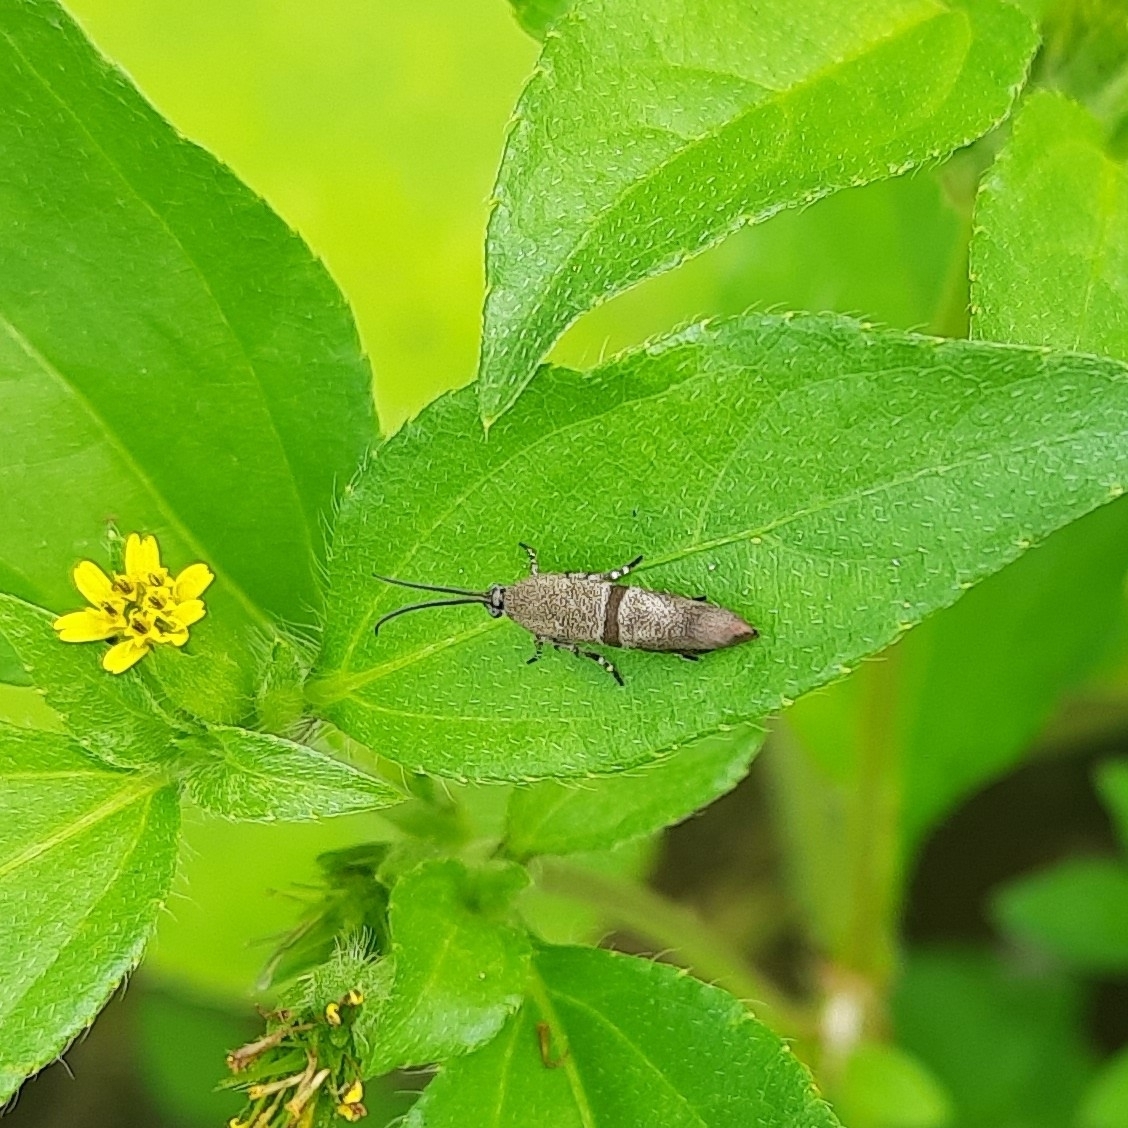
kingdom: Animalia
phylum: Arthropoda
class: Insecta
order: Lepidoptera
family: Brachodidae
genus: Phycodes
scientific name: Phycodes minor
